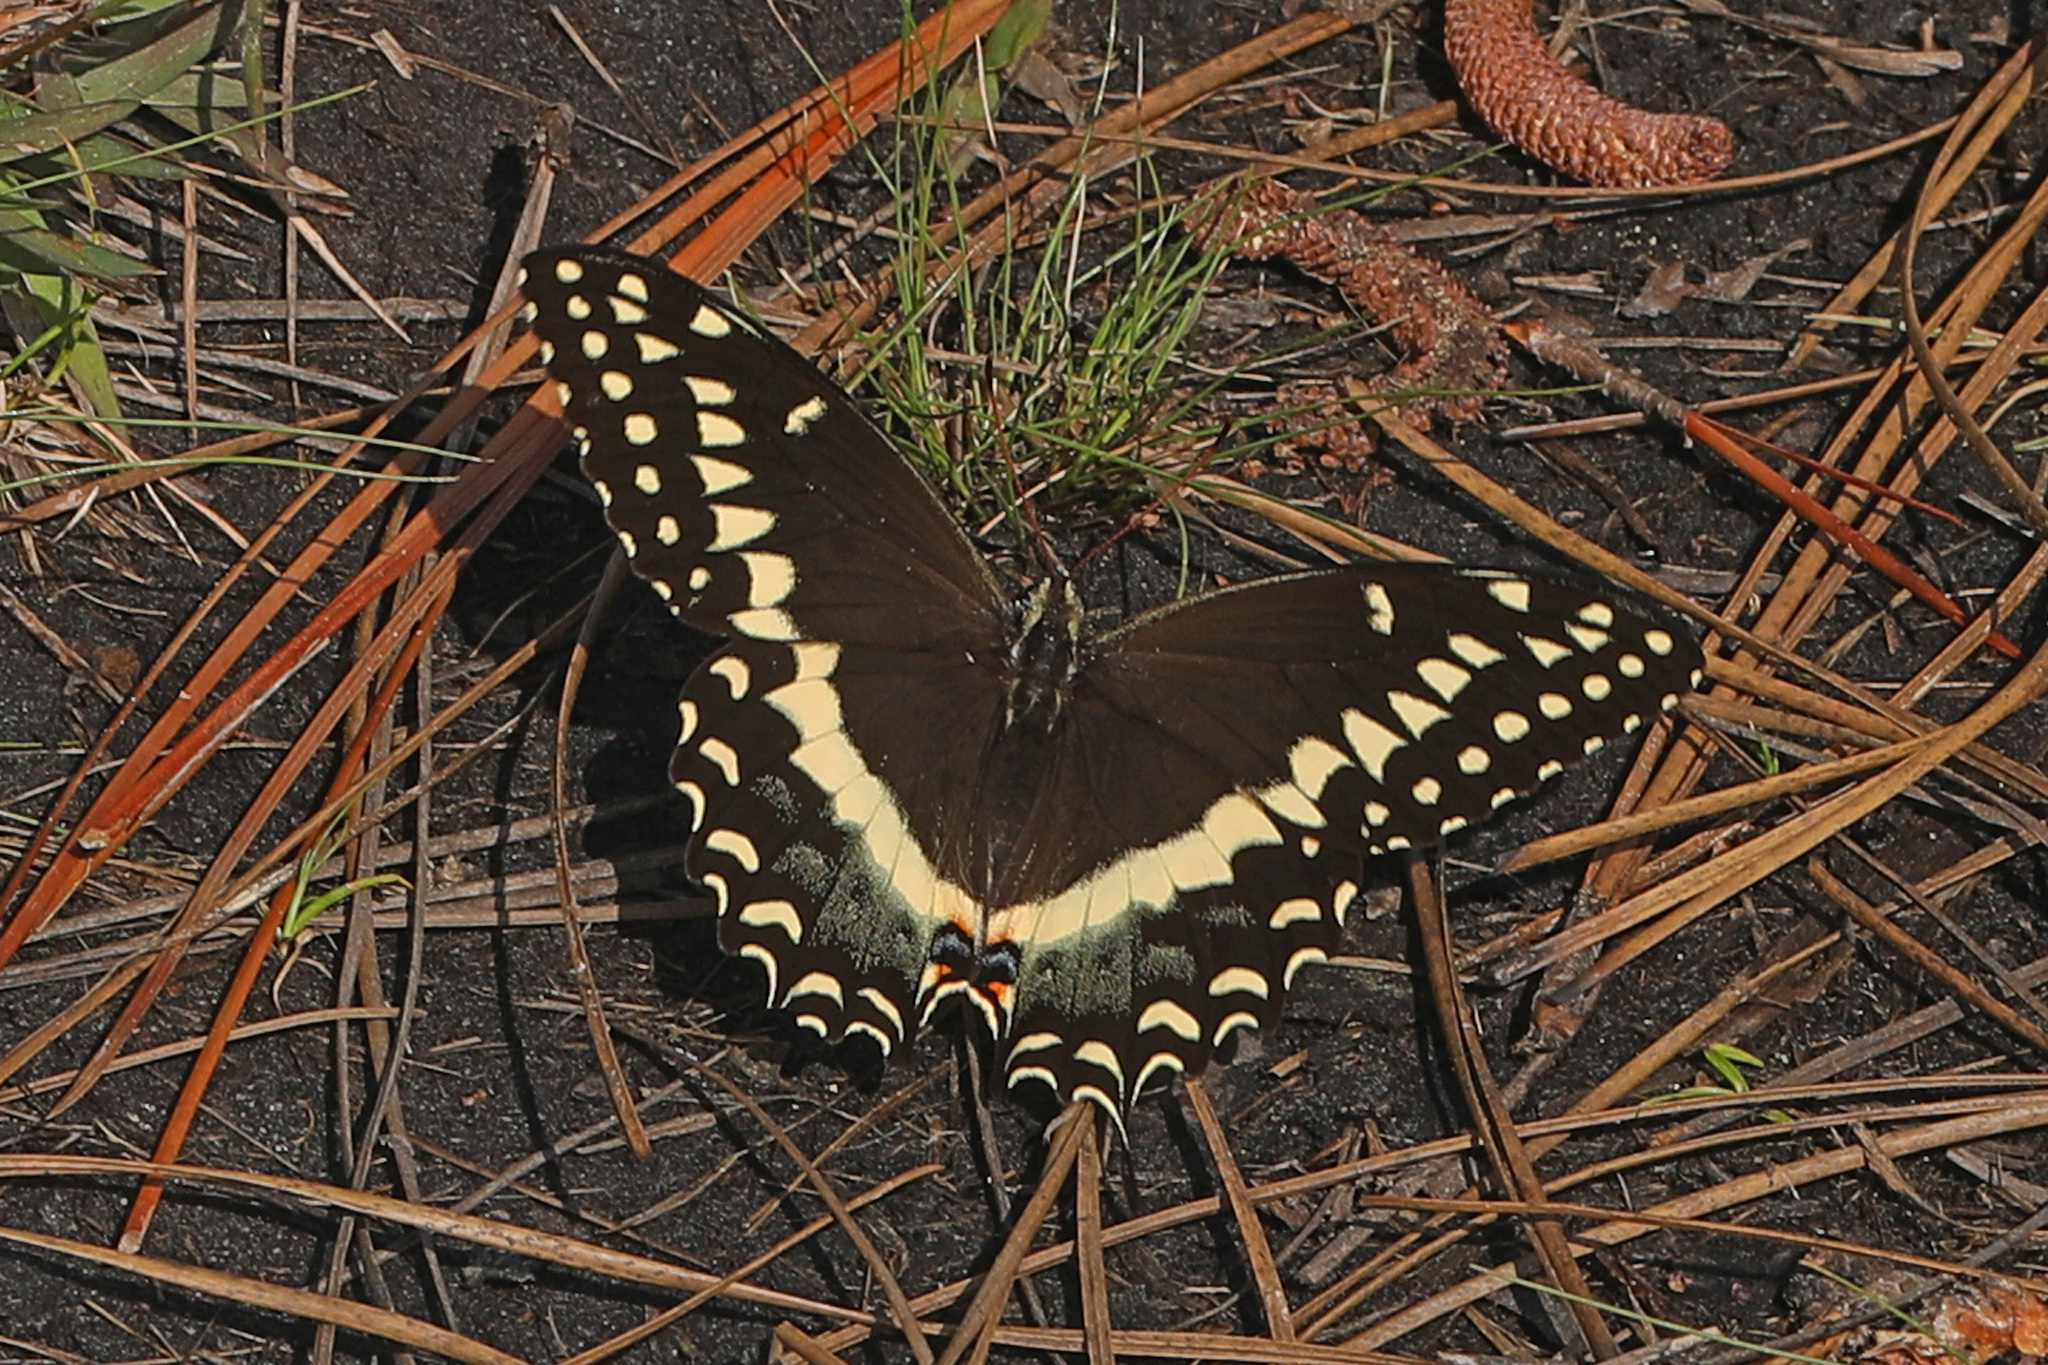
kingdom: Animalia
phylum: Arthropoda
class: Insecta
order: Lepidoptera
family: Papilionidae
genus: Papilio
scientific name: Papilio palamedes
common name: Palamedes swallowtail
